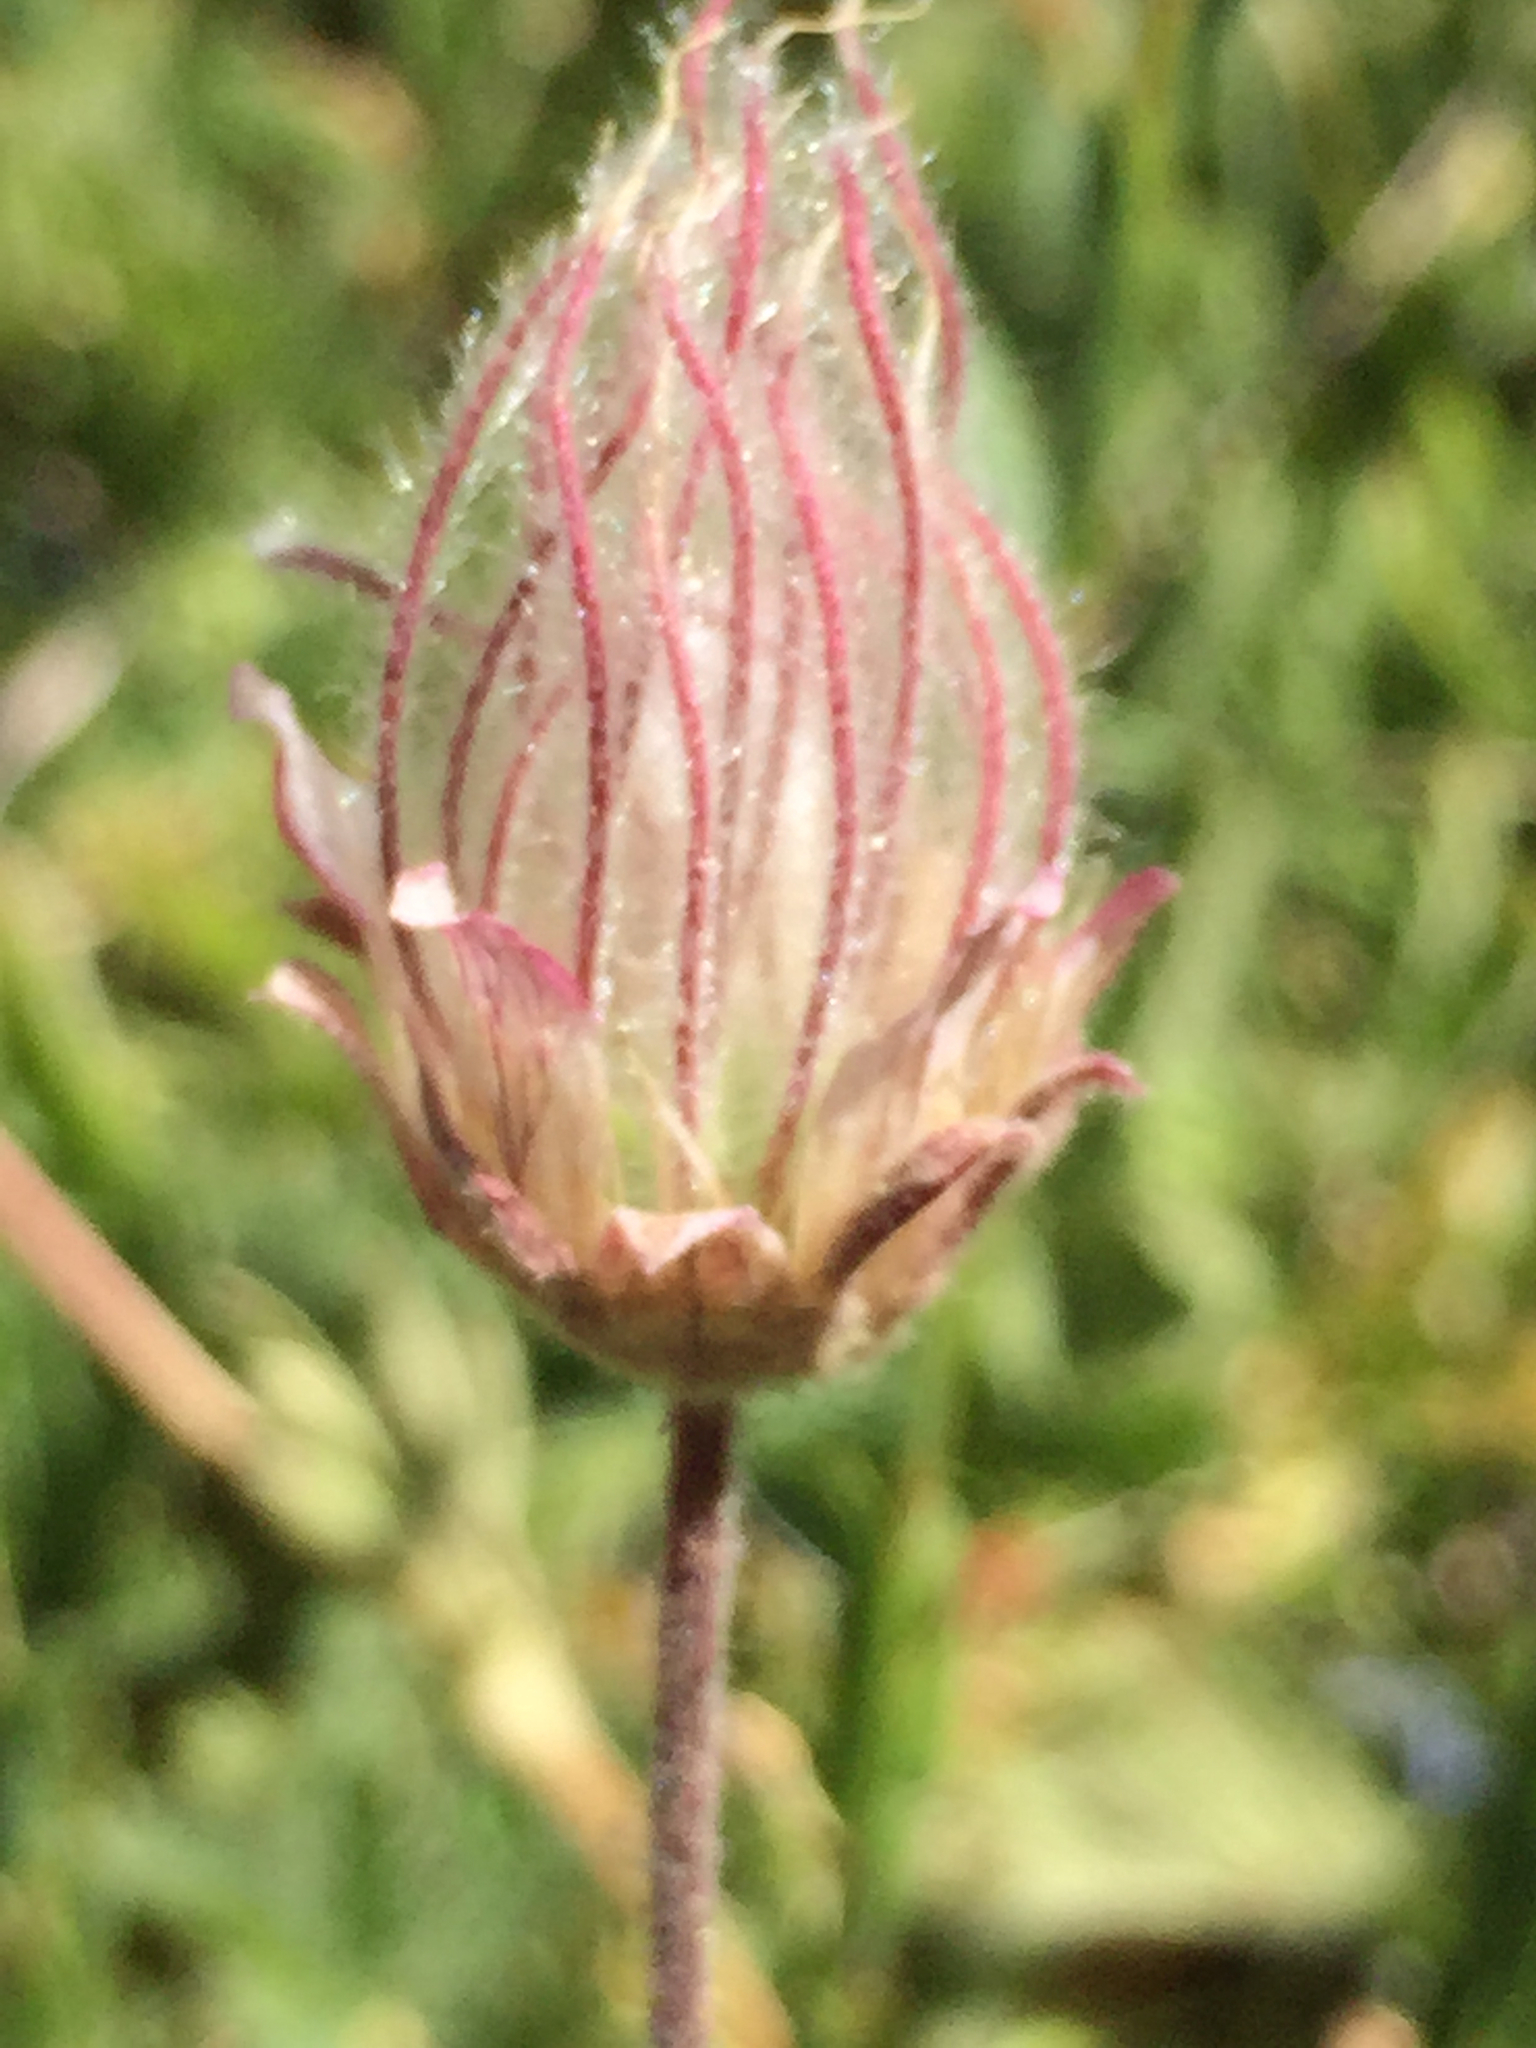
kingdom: Plantae
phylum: Tracheophyta
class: Magnoliopsida
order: Rosales
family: Rosaceae
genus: Geum
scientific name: Geum triflorum
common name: Old man's whiskers
